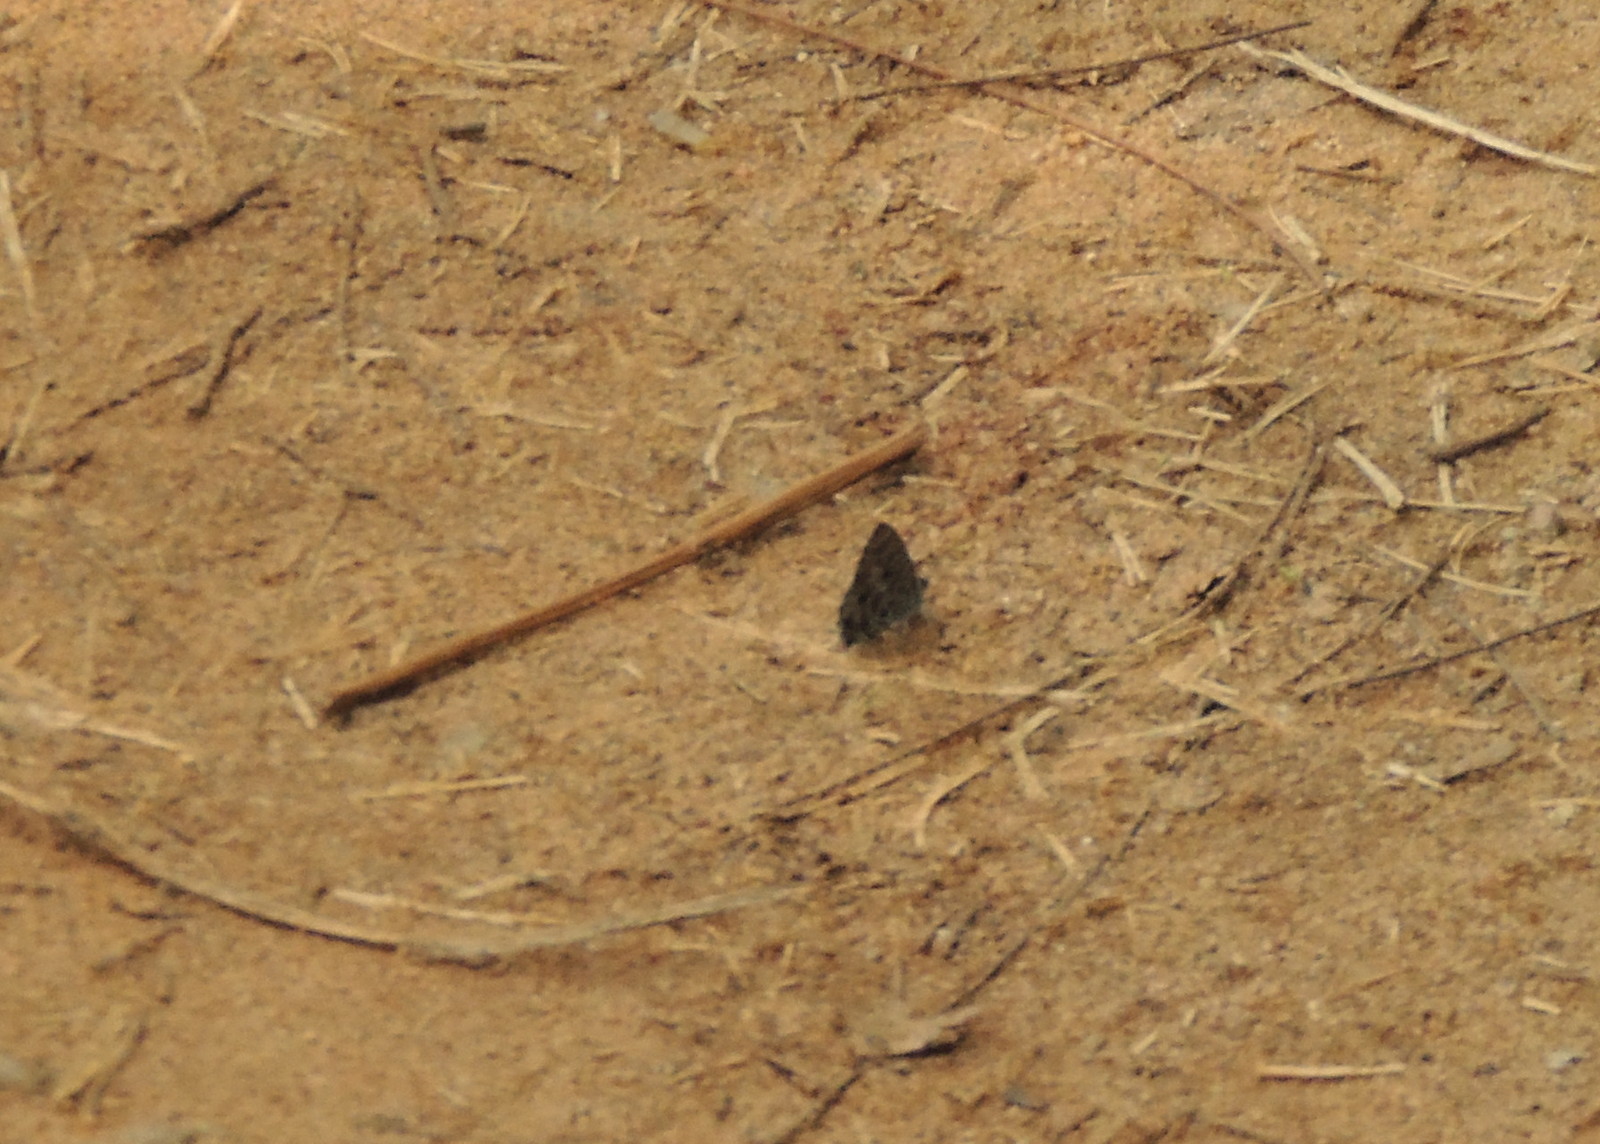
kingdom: Animalia
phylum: Arthropoda
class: Insecta
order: Lepidoptera
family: Lycaenidae
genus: Anthene
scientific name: Anthene larydas
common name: Forest hairtail
